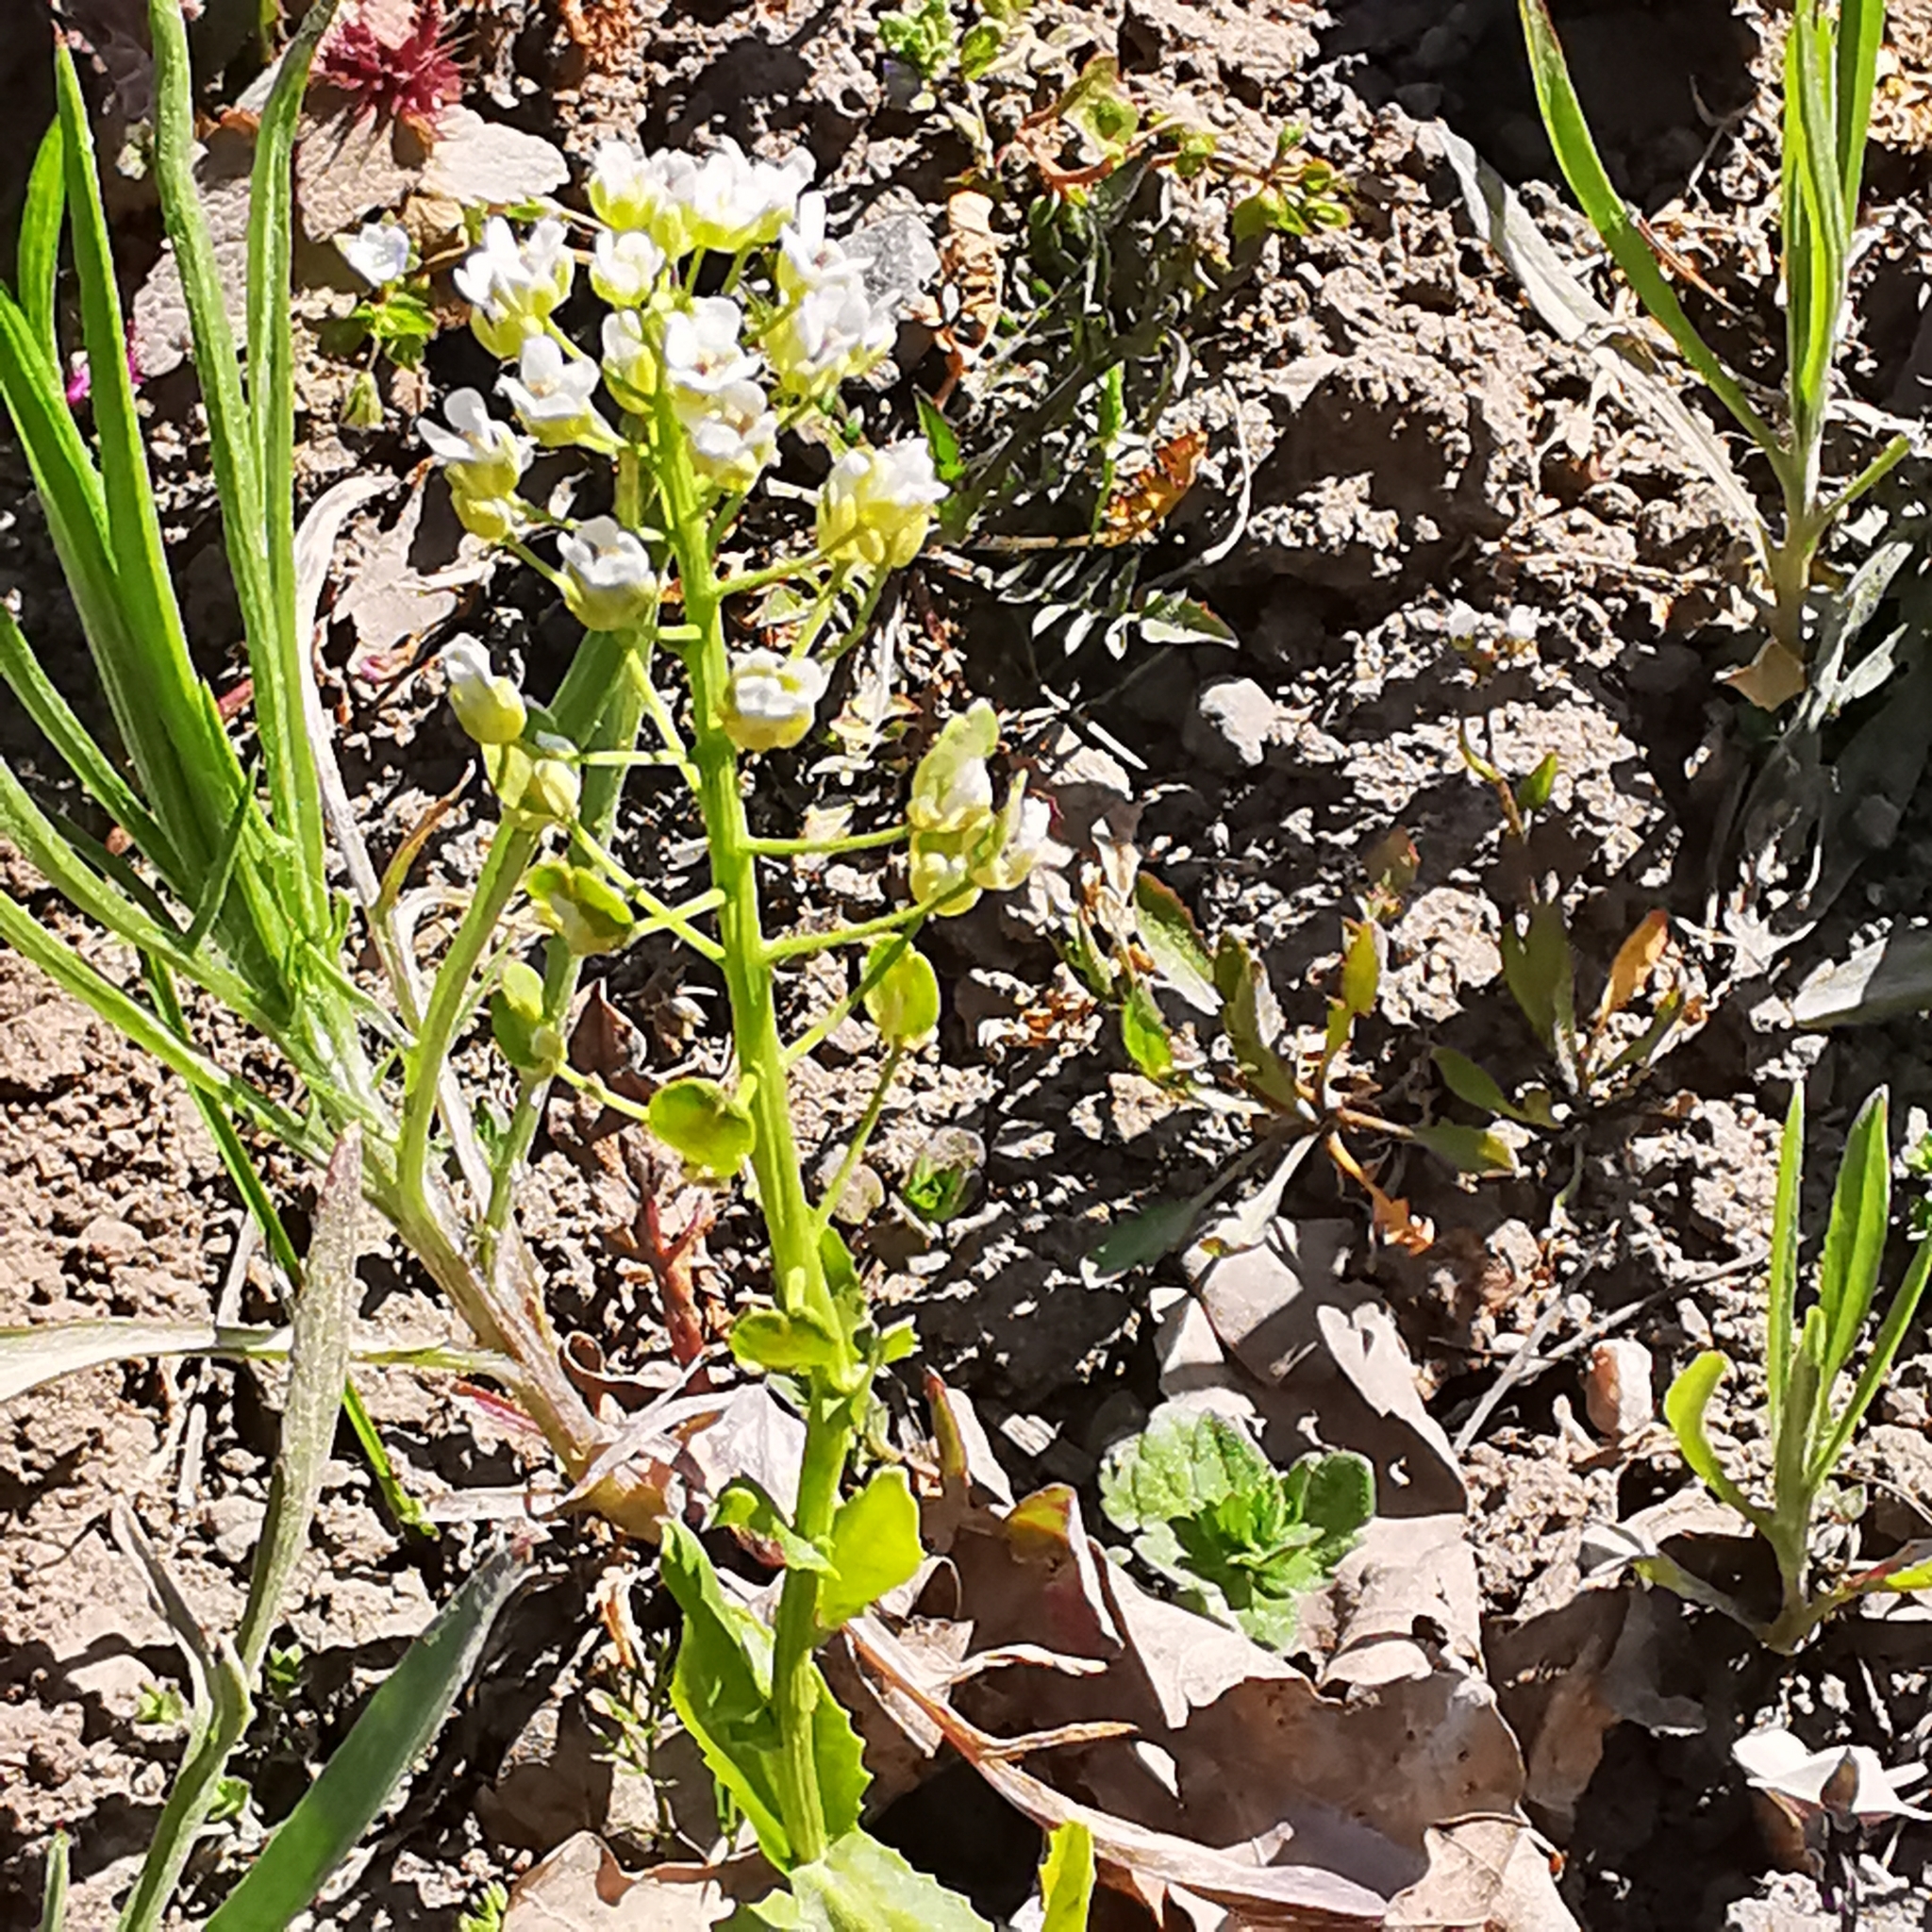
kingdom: Plantae
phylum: Tracheophyta
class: Magnoliopsida
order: Brassicales
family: Brassicaceae
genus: Thlaspi
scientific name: Thlaspi arvense
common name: Field pennycress
